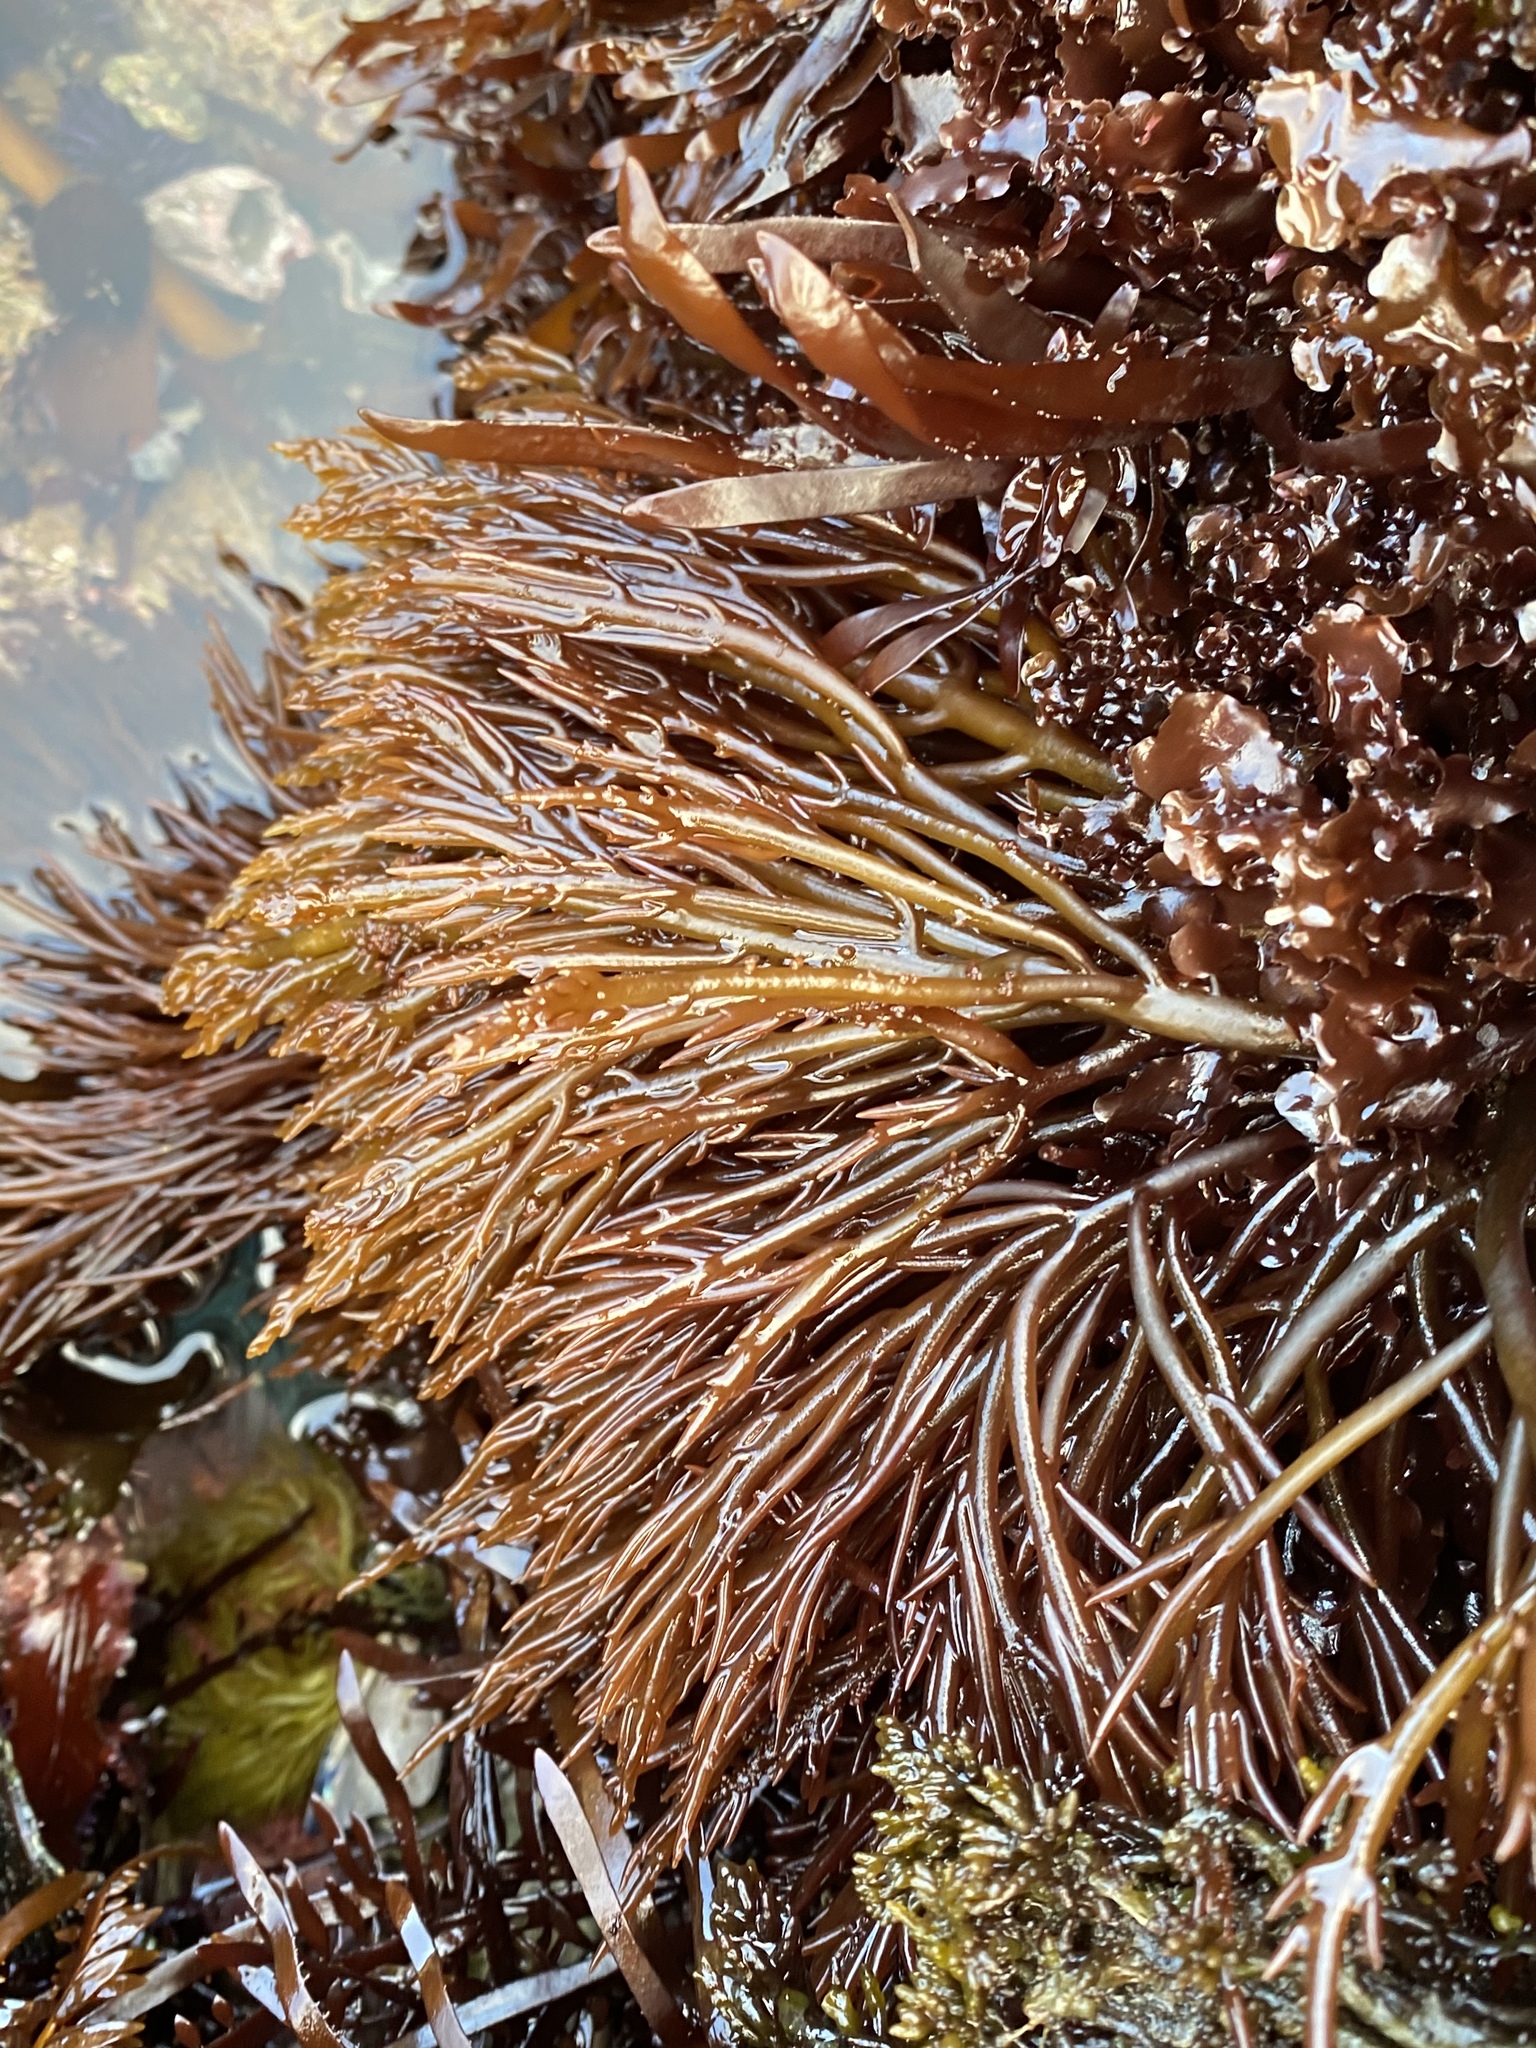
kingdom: Plantae
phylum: Rhodophyta
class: Florideophyceae
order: Gigartinales
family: Solieriaceae
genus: Sarcodiotheca
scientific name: Sarcodiotheca gaudichaudii
